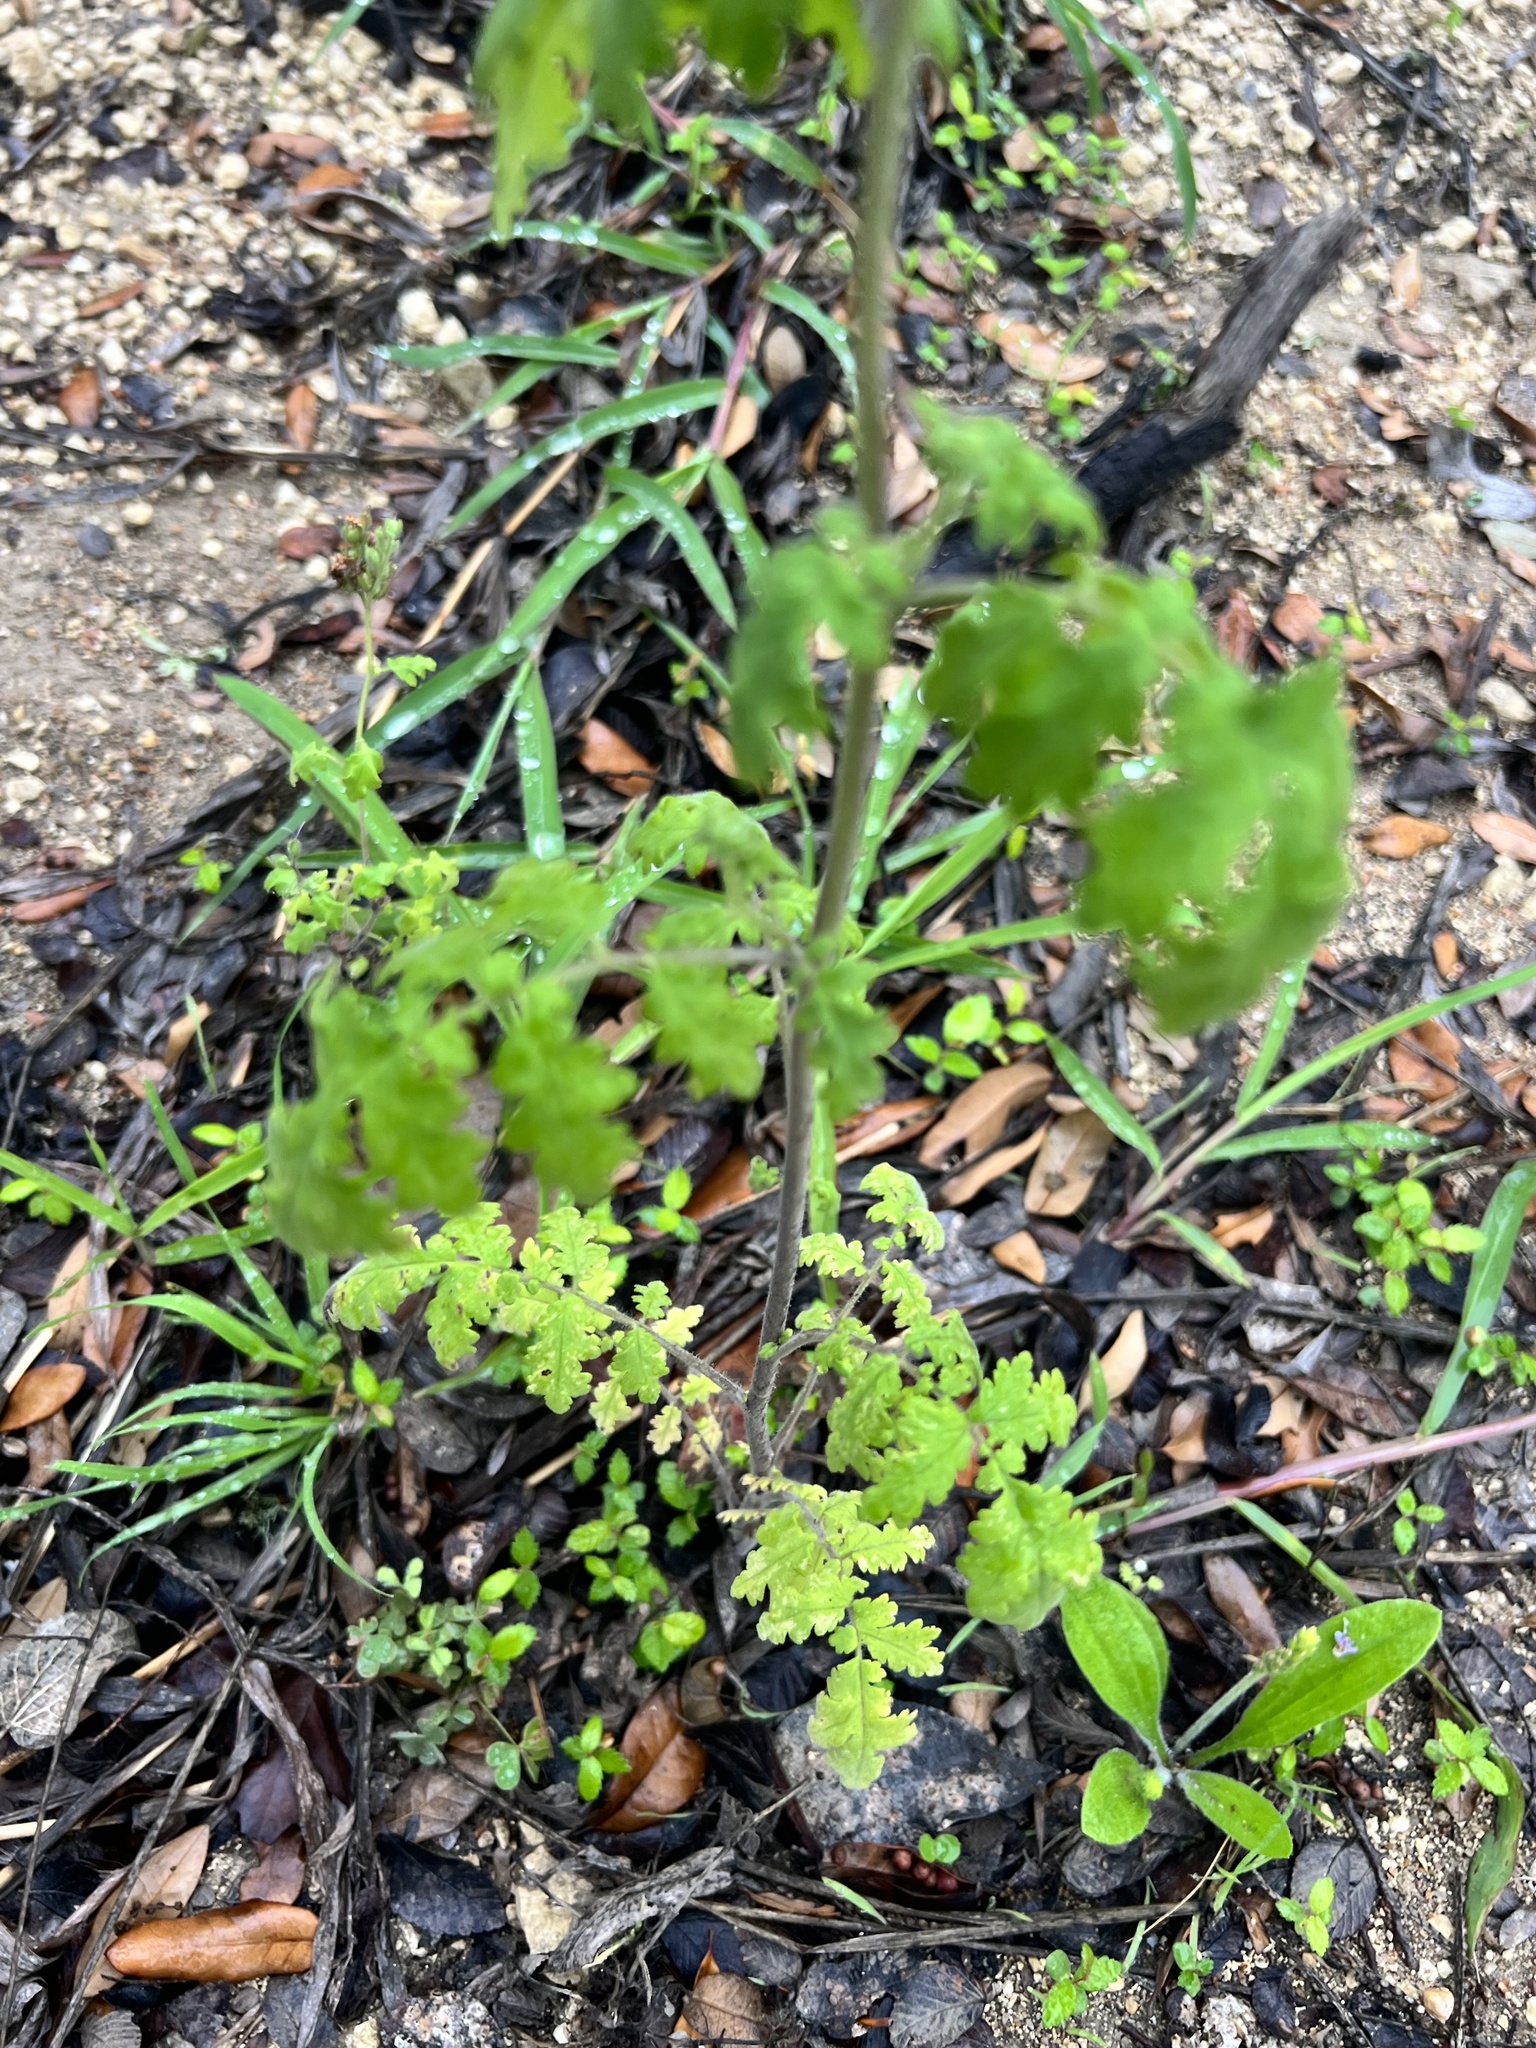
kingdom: Plantae
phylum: Tracheophyta
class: Magnoliopsida
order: Boraginales
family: Hydrophyllaceae
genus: Phacelia
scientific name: Phacelia congesta
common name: Blue curls
